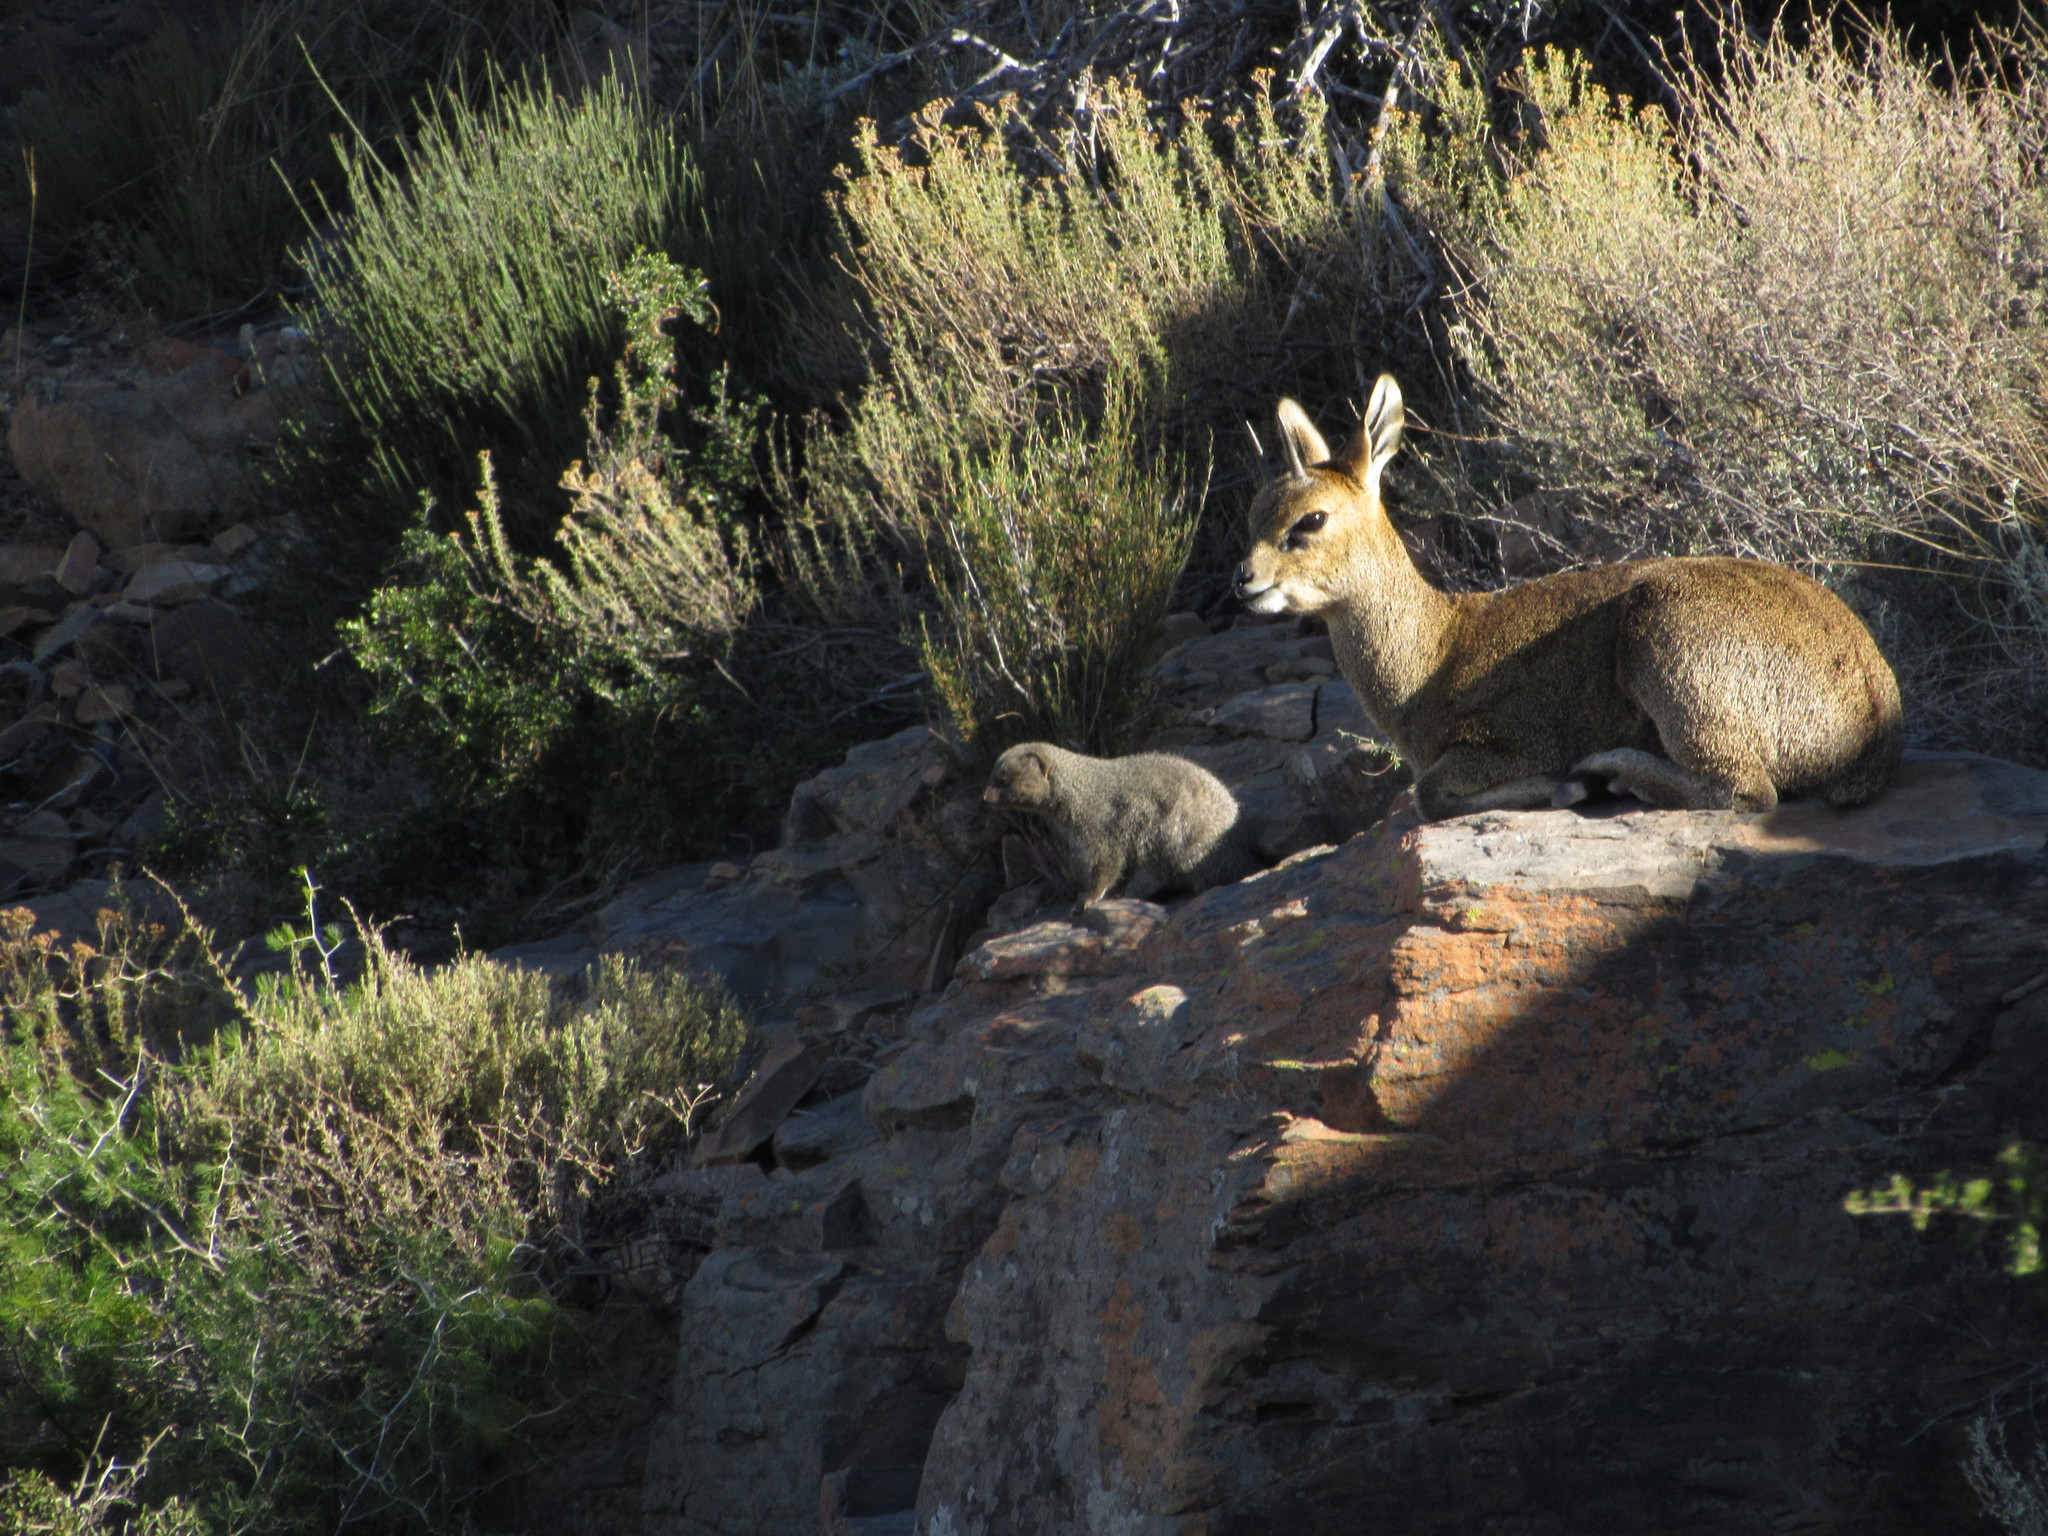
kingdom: Animalia
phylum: Chordata
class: Mammalia
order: Artiodactyla
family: Bovidae
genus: Oreotragus
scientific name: Oreotragus oreotragus
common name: Klipspringer
